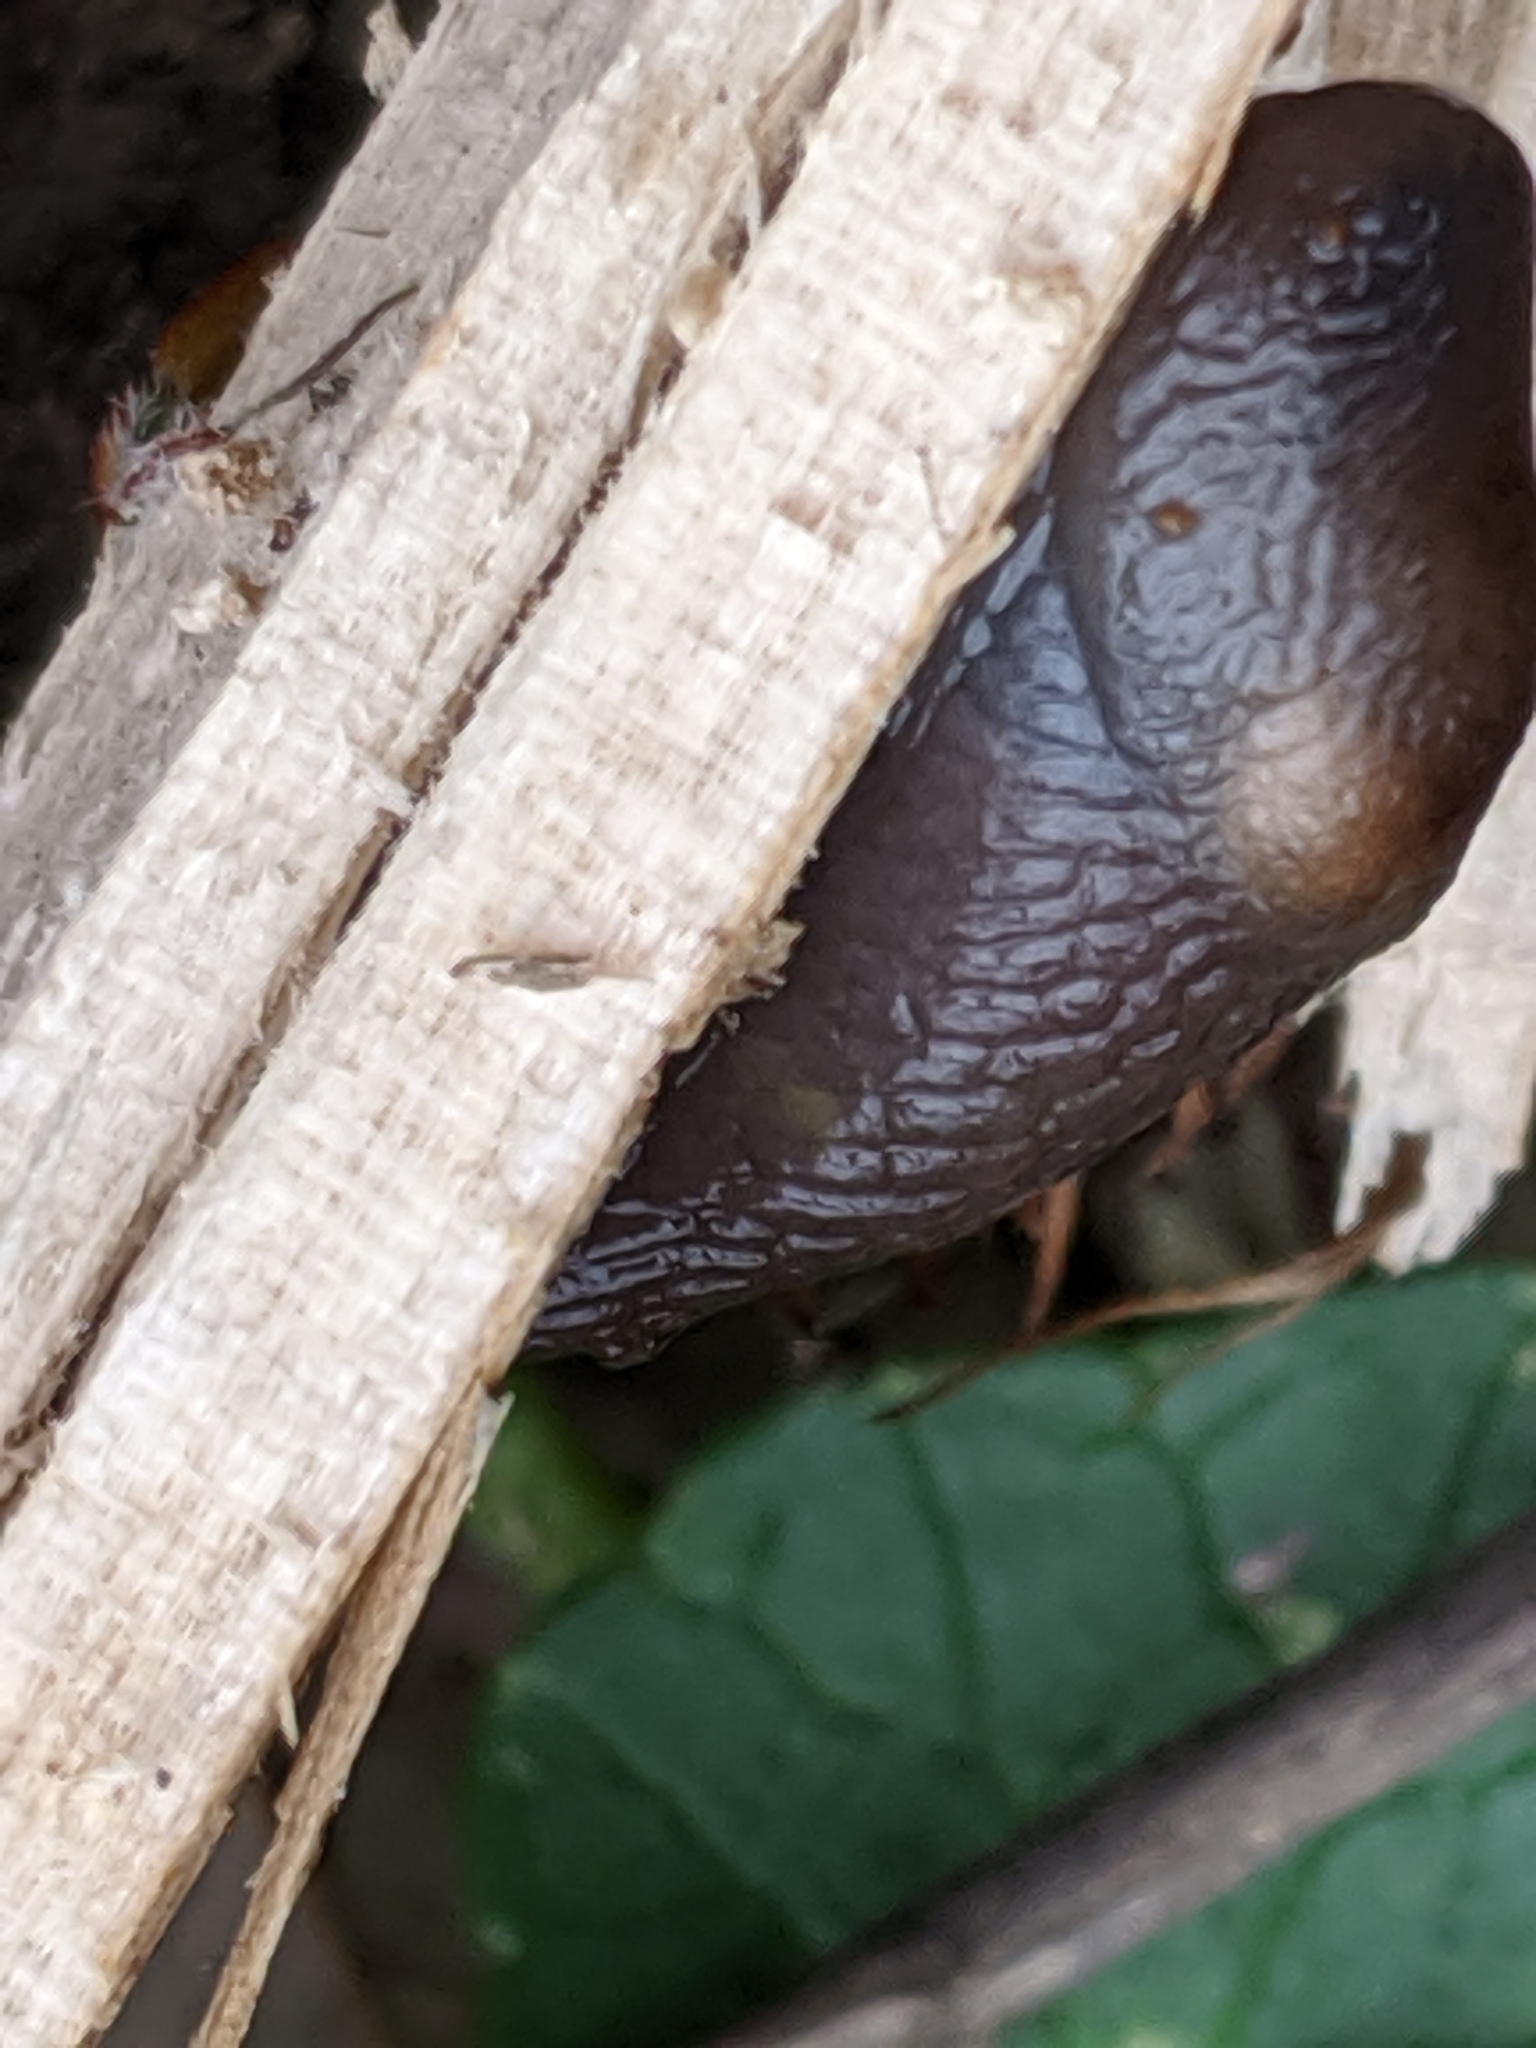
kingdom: Animalia
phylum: Mollusca
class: Gastropoda
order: Stylommatophora
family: Agriolimacidae
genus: Deroceras
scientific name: Deroceras laeve
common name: Marsh slug
